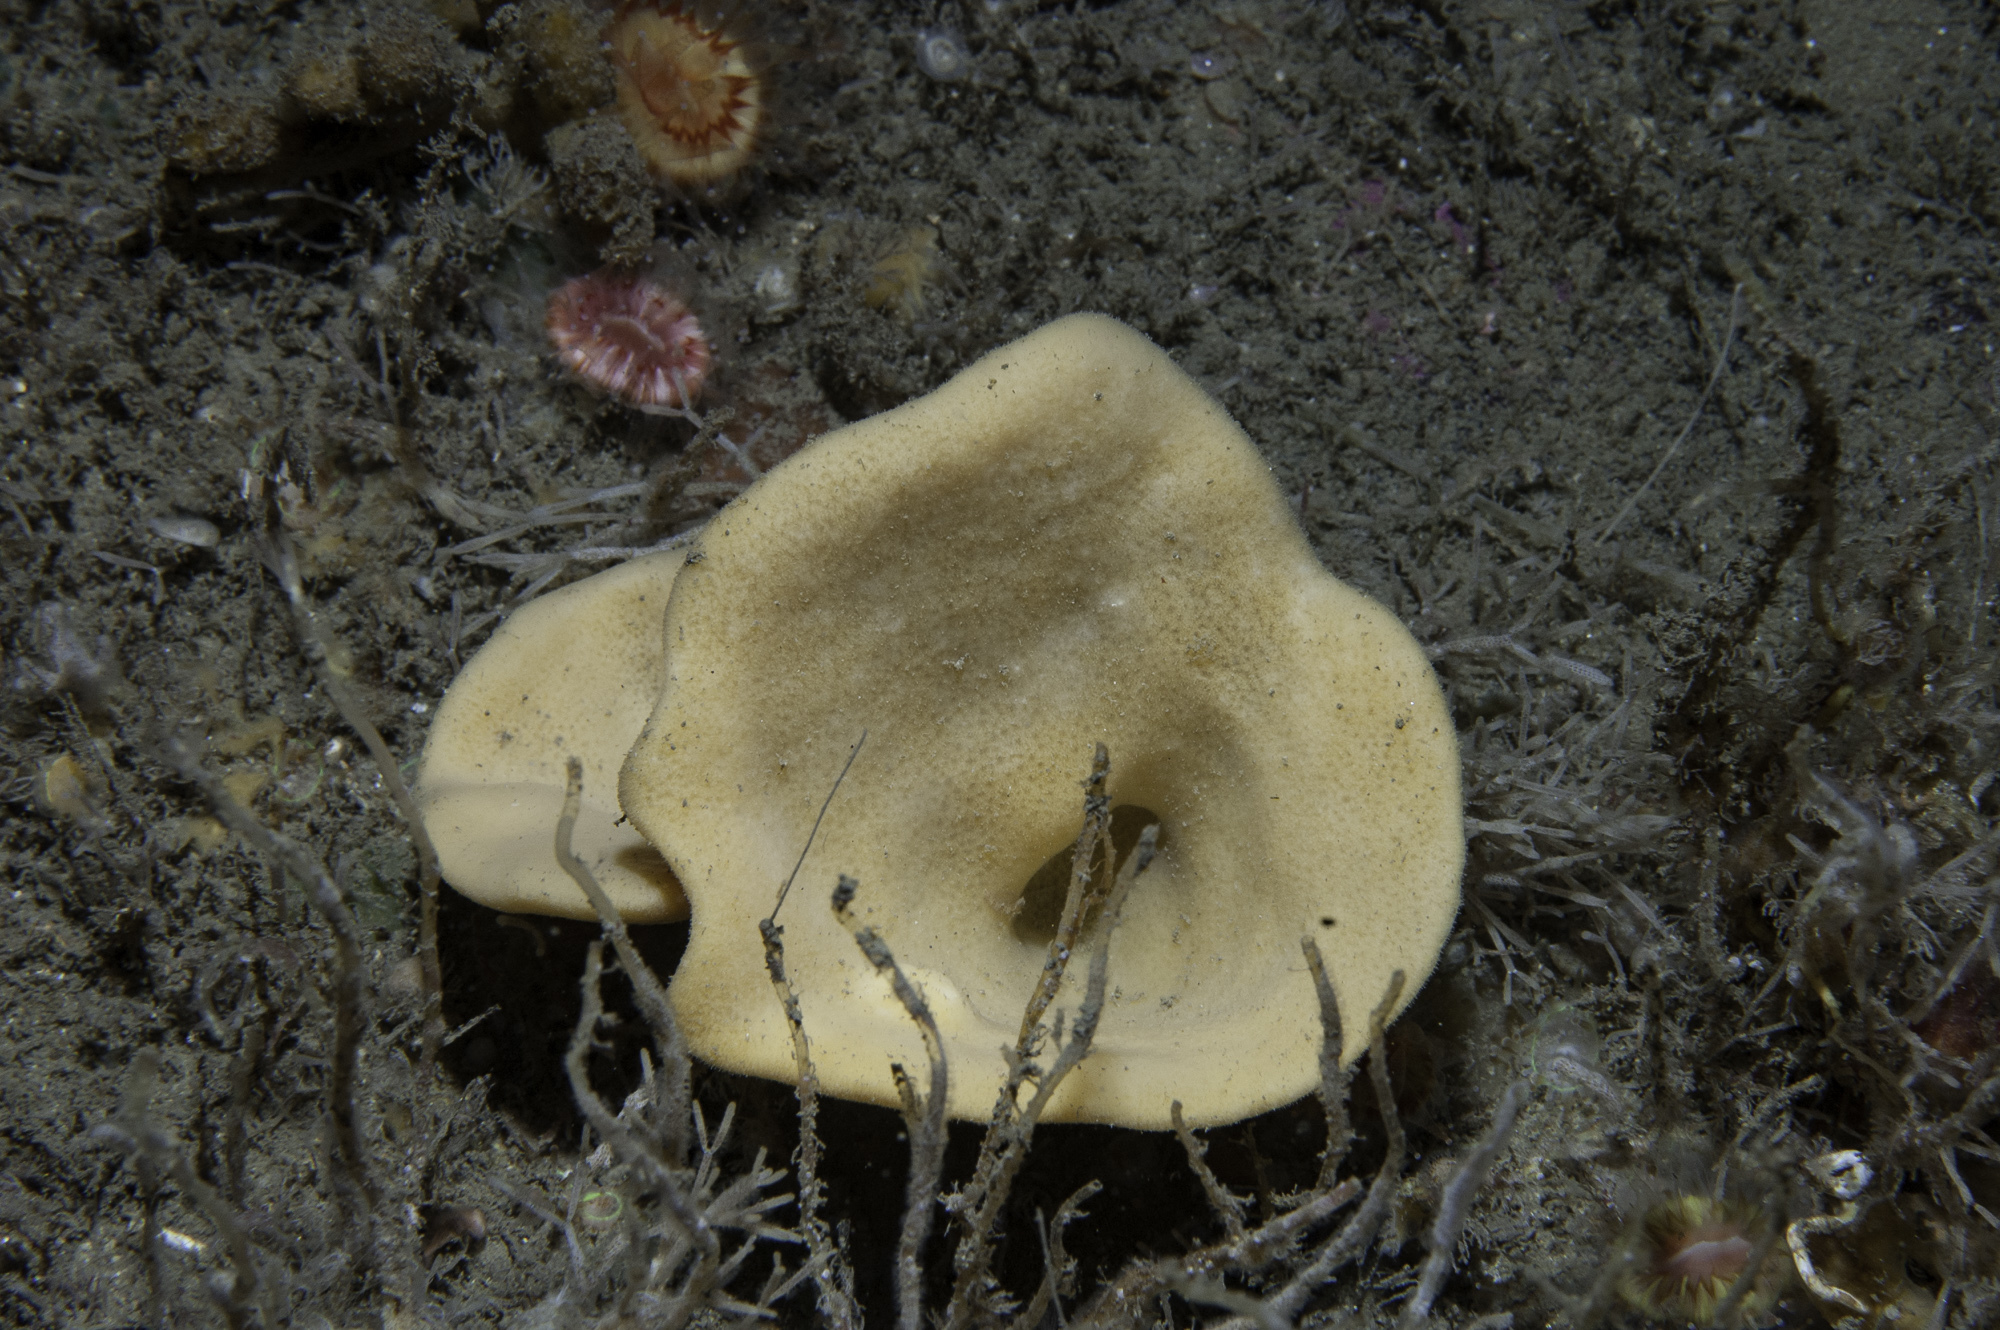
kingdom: Animalia
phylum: Porifera
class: Demospongiae
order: Axinellida
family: Axinellidae
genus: Axinella
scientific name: Axinella infundibuliformis
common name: North atlantic cup sponge
